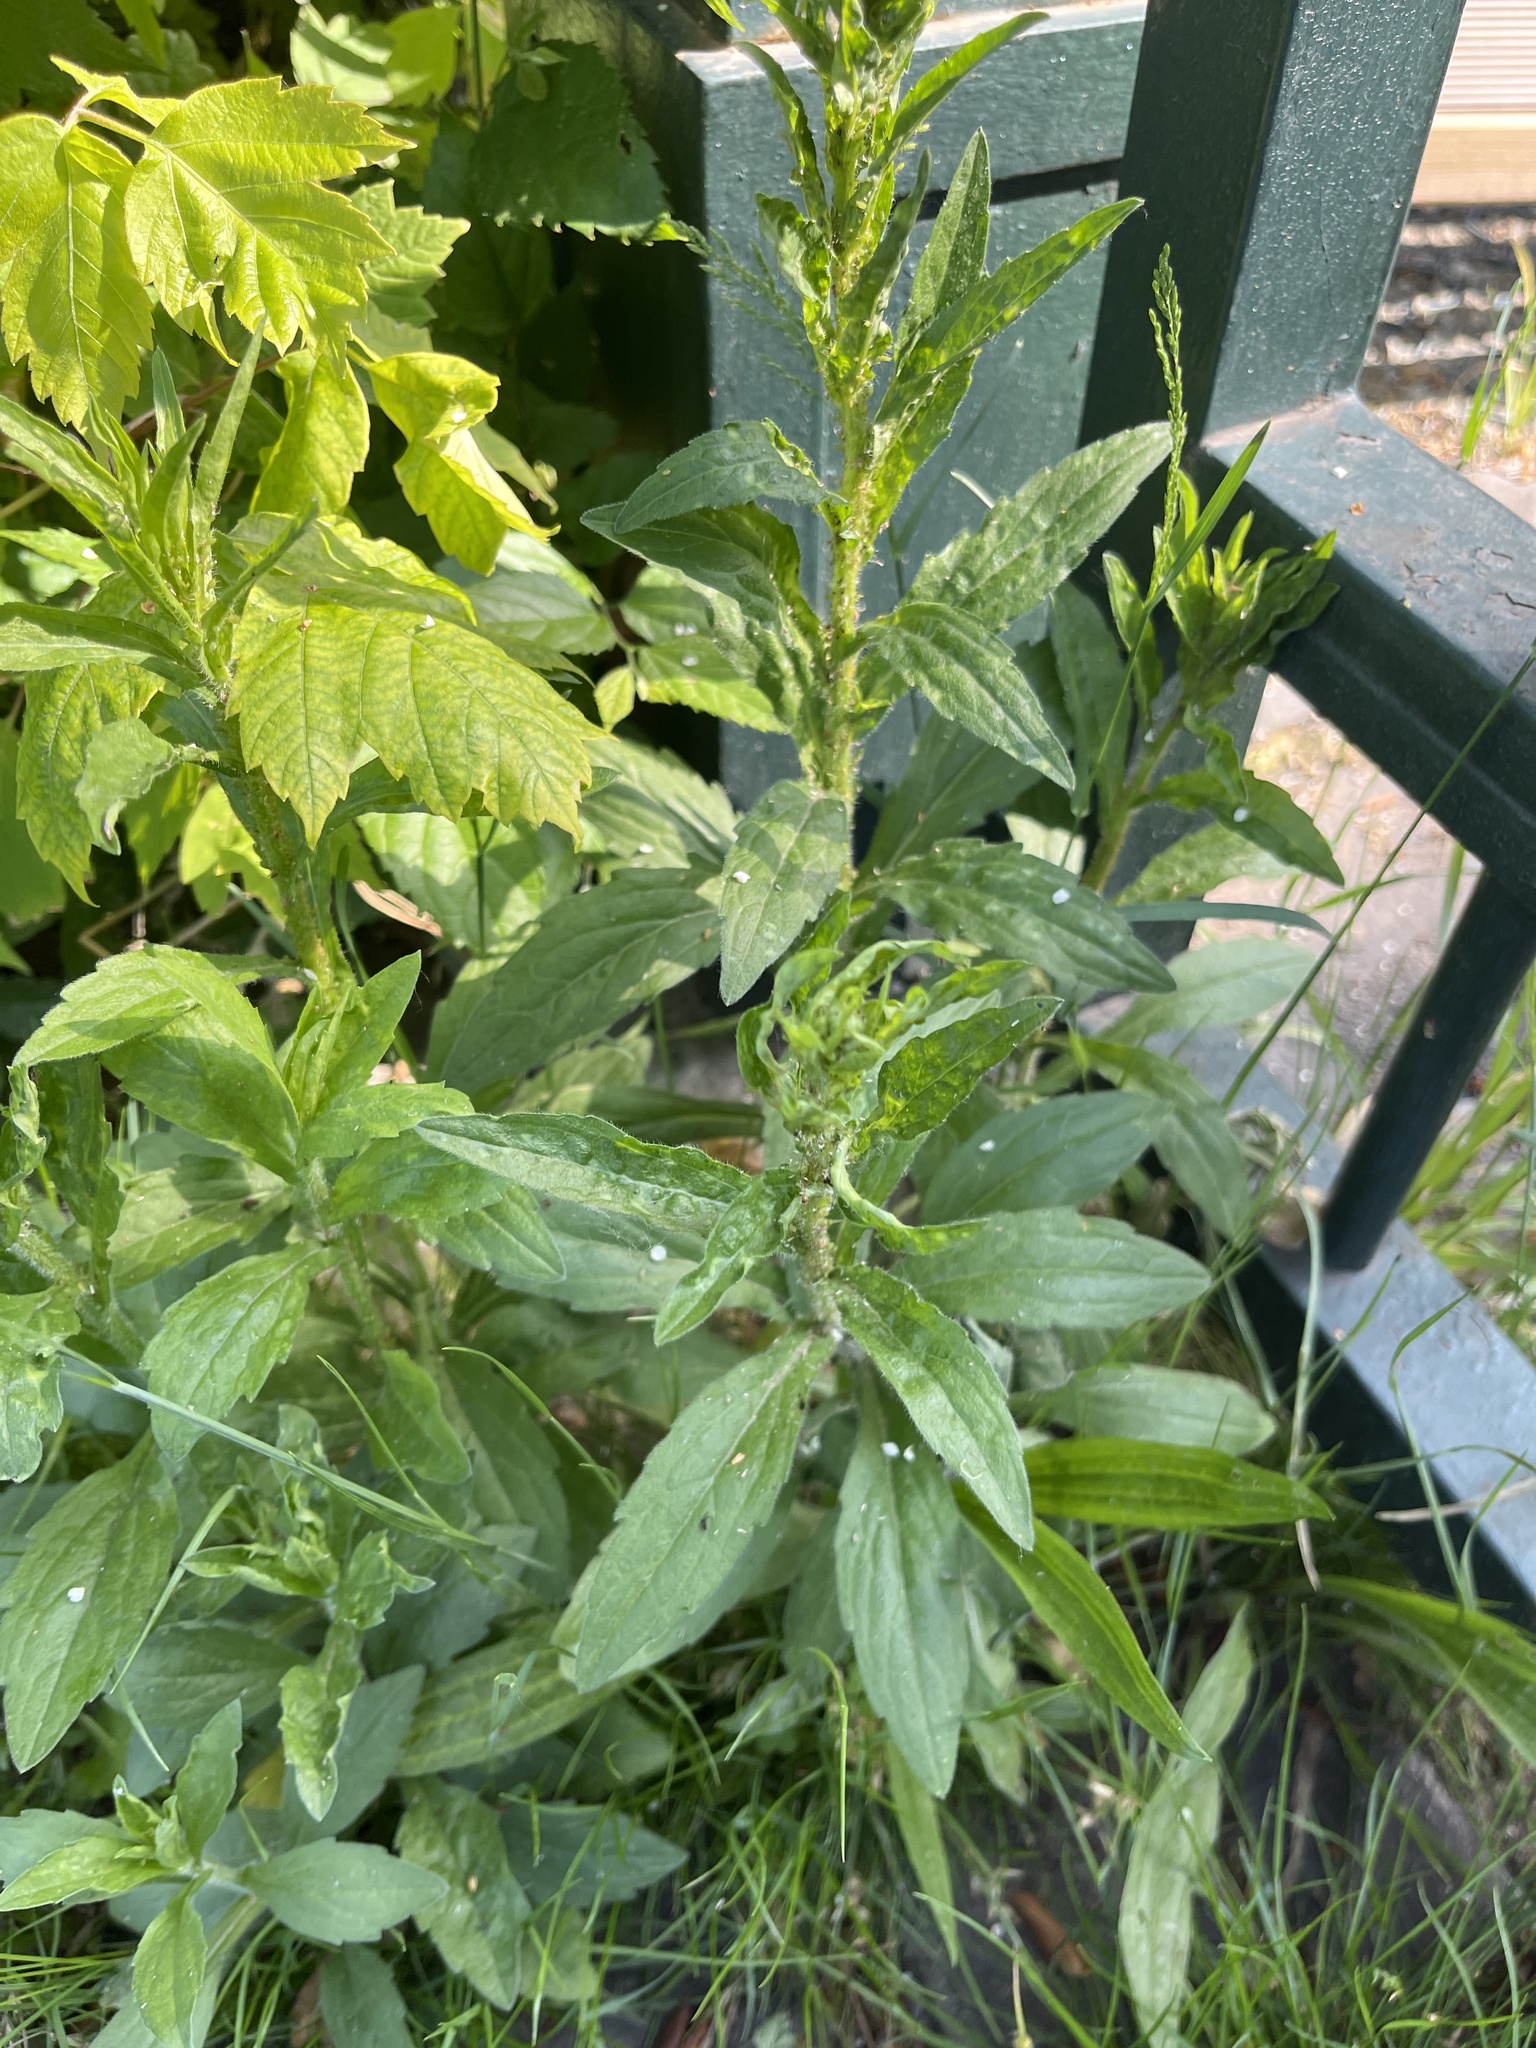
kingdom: Plantae
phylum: Tracheophyta
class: Magnoliopsida
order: Asterales
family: Asteraceae
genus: Erigeron
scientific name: Erigeron annuus
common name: Tall fleabane
